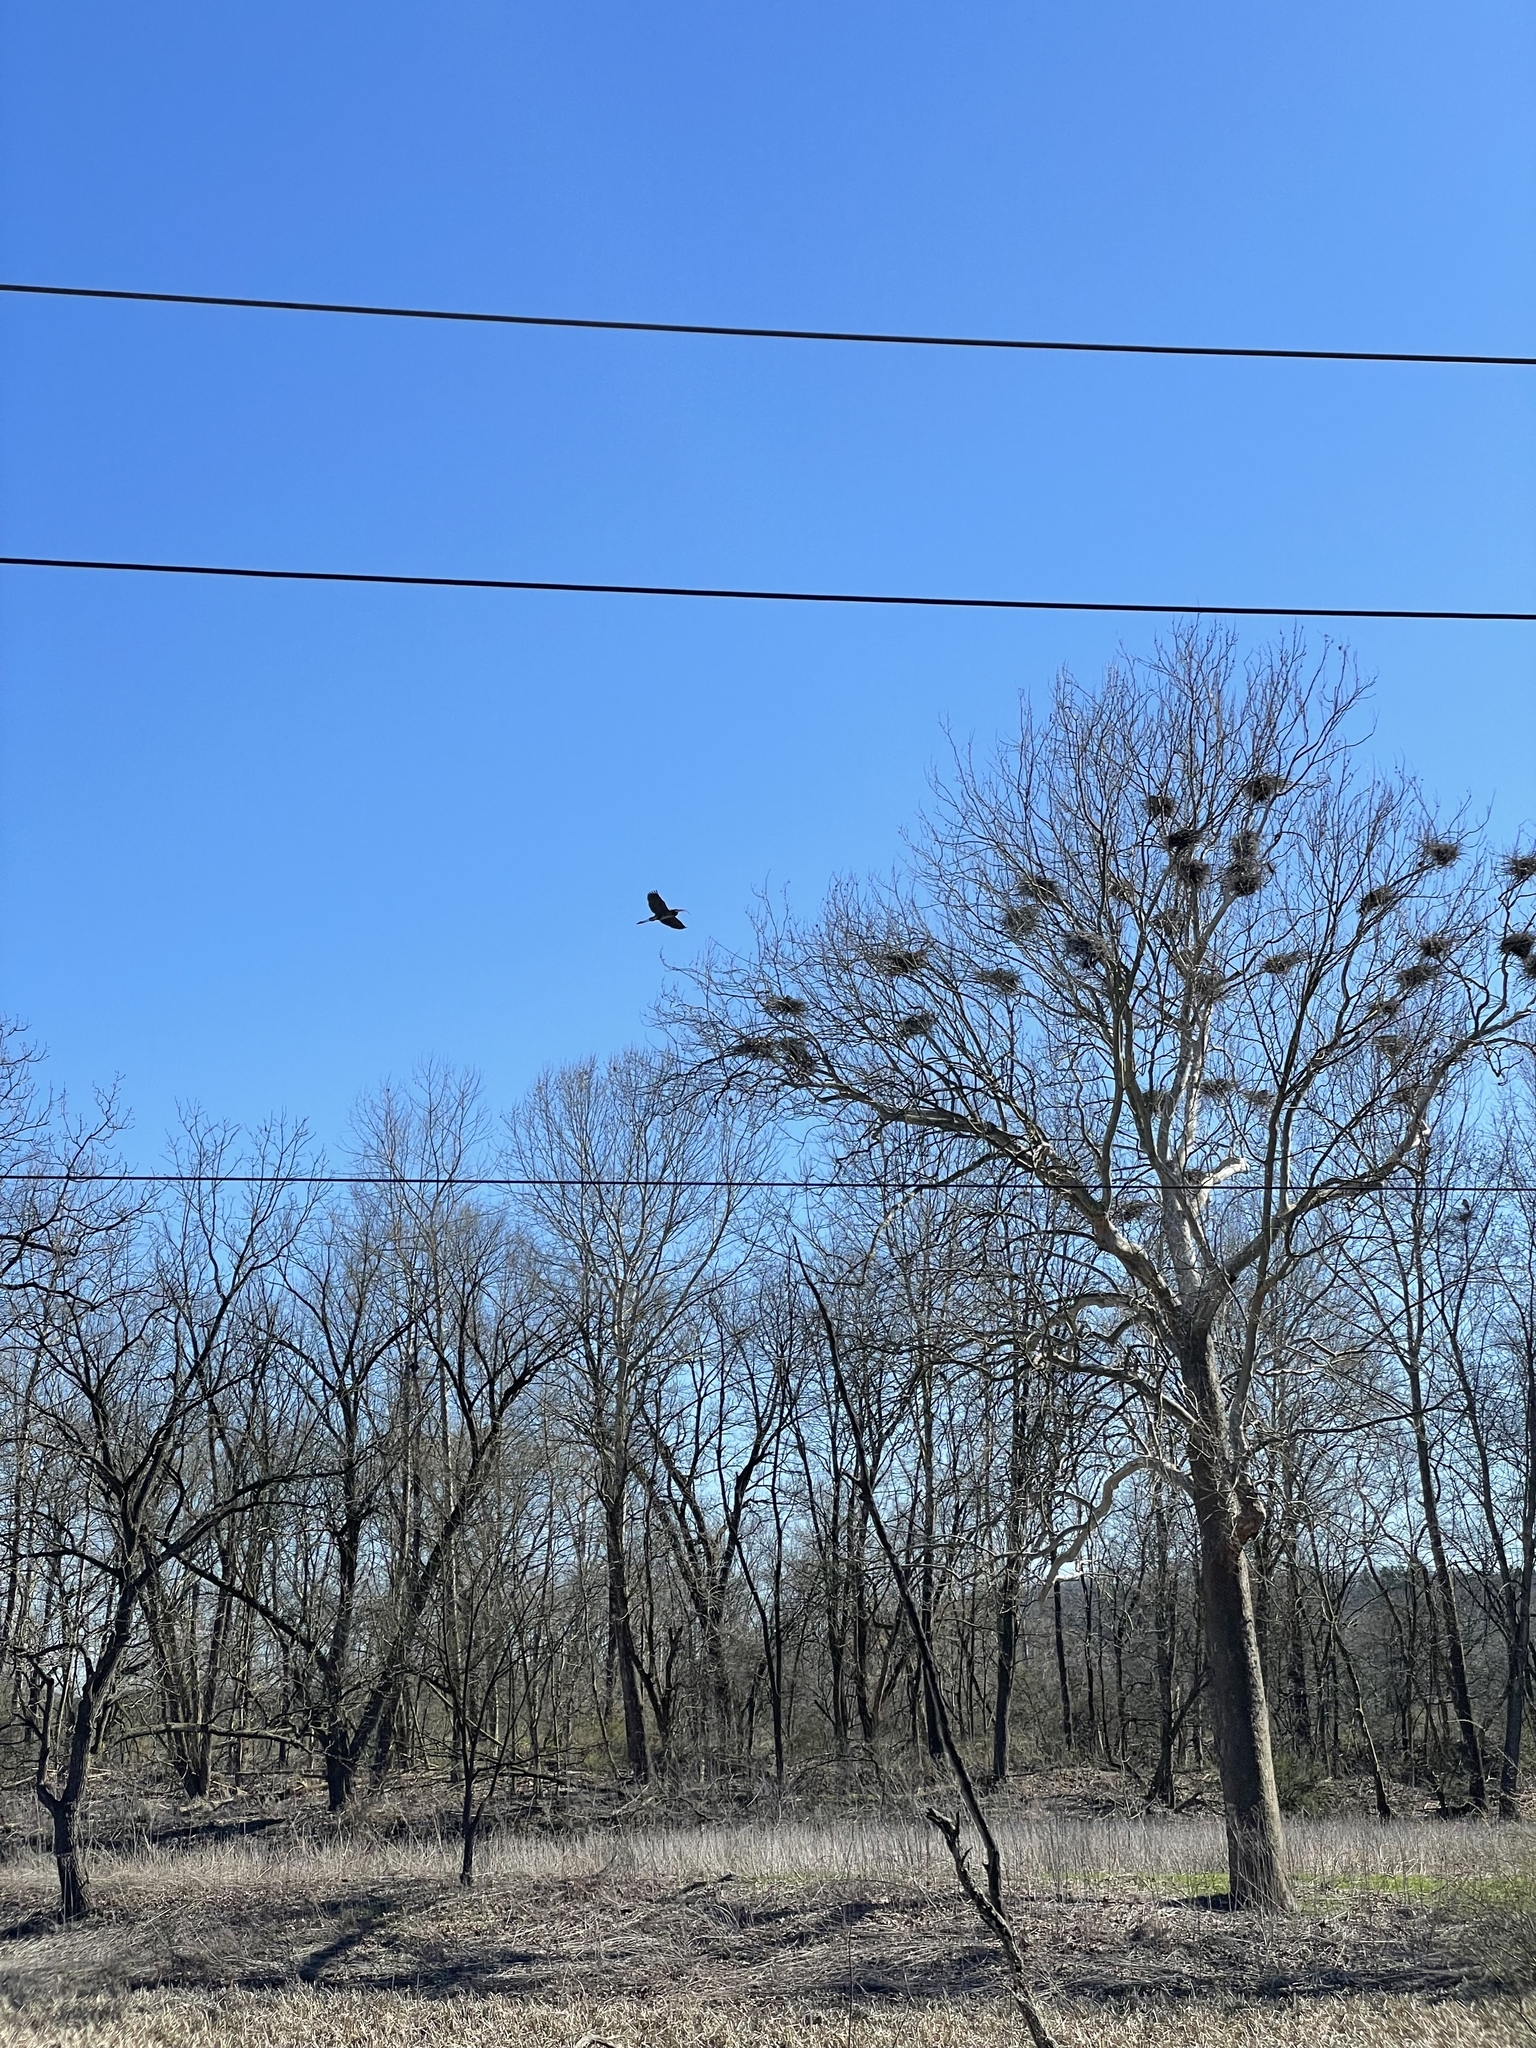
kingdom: Animalia
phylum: Chordata
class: Aves
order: Pelecaniformes
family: Ardeidae
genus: Ardea
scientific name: Ardea herodias
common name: Great blue heron
